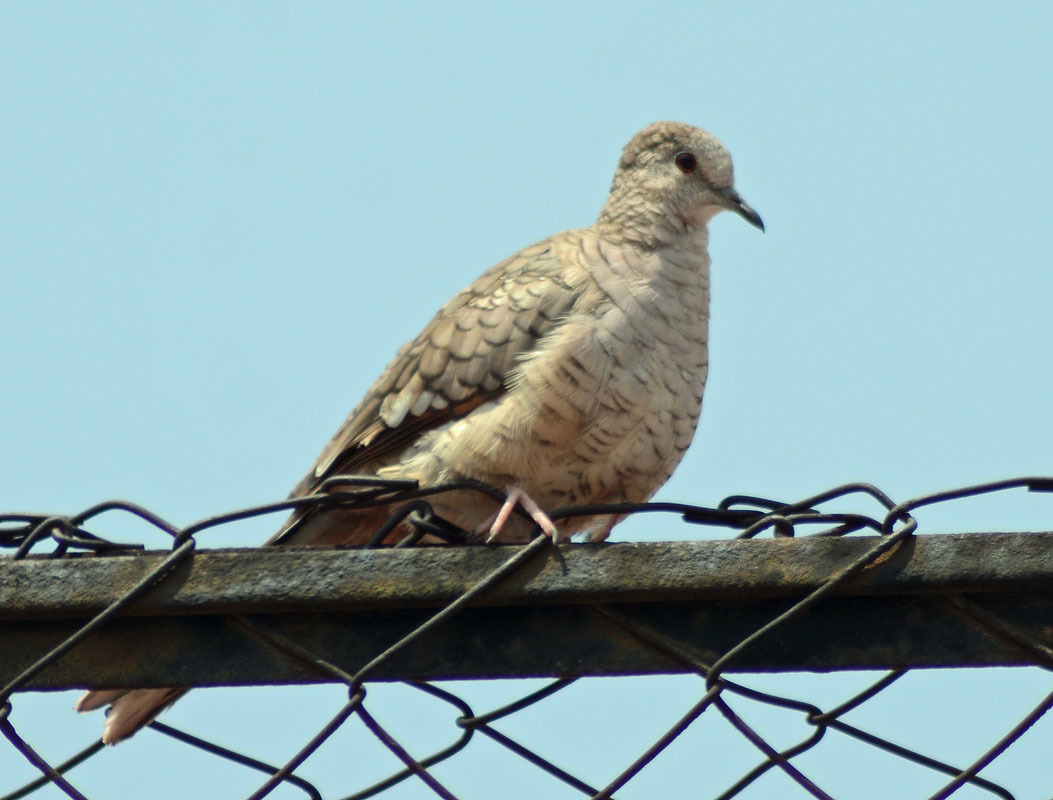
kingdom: Animalia
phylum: Chordata
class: Aves
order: Columbiformes
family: Columbidae
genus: Columbina
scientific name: Columbina inca
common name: Inca dove
